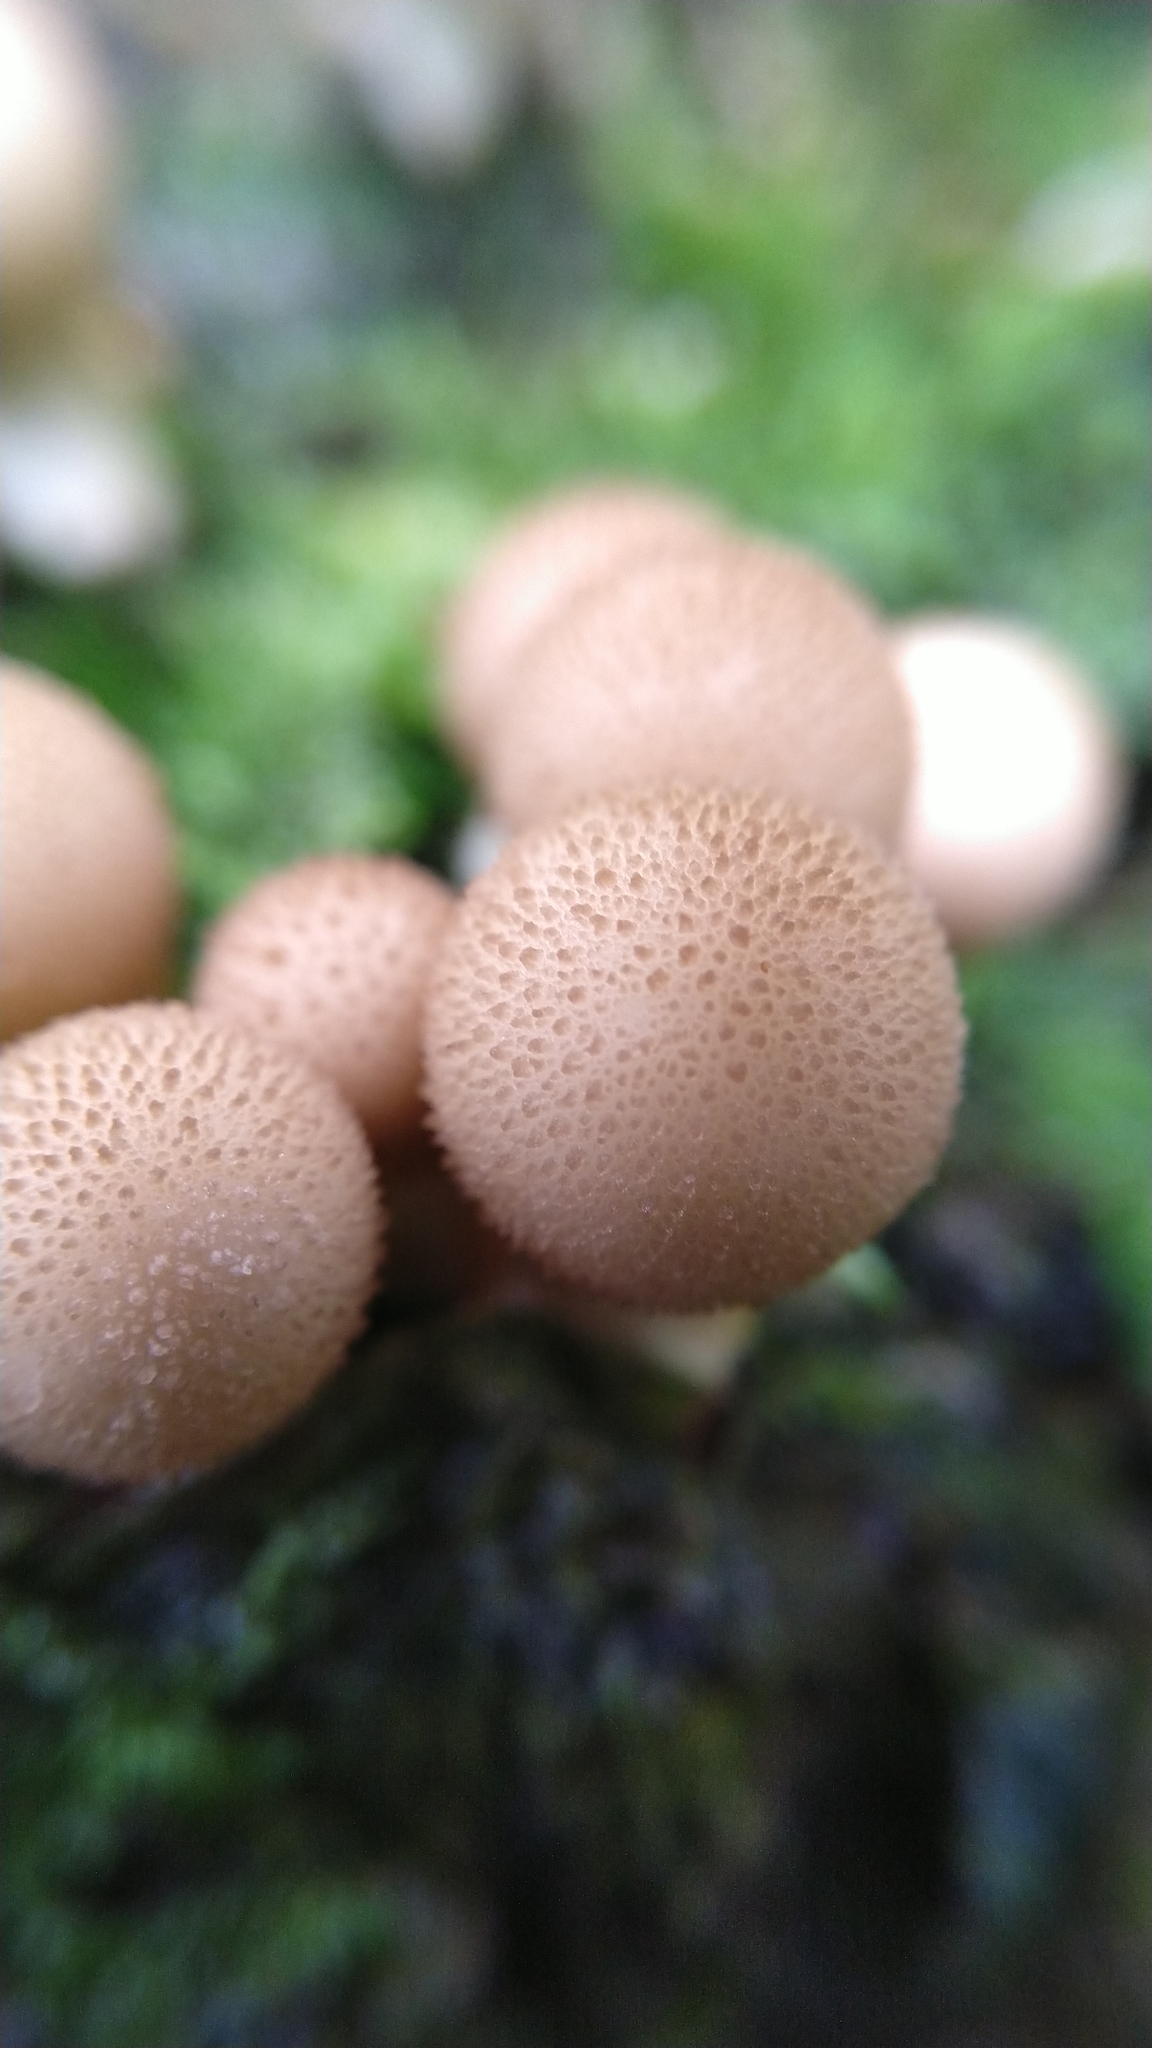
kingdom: Fungi
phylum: Basidiomycota
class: Agaricomycetes
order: Agaricales
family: Lycoperdaceae
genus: Apioperdon
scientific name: Apioperdon pyriforme
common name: Pear-shaped puffball
